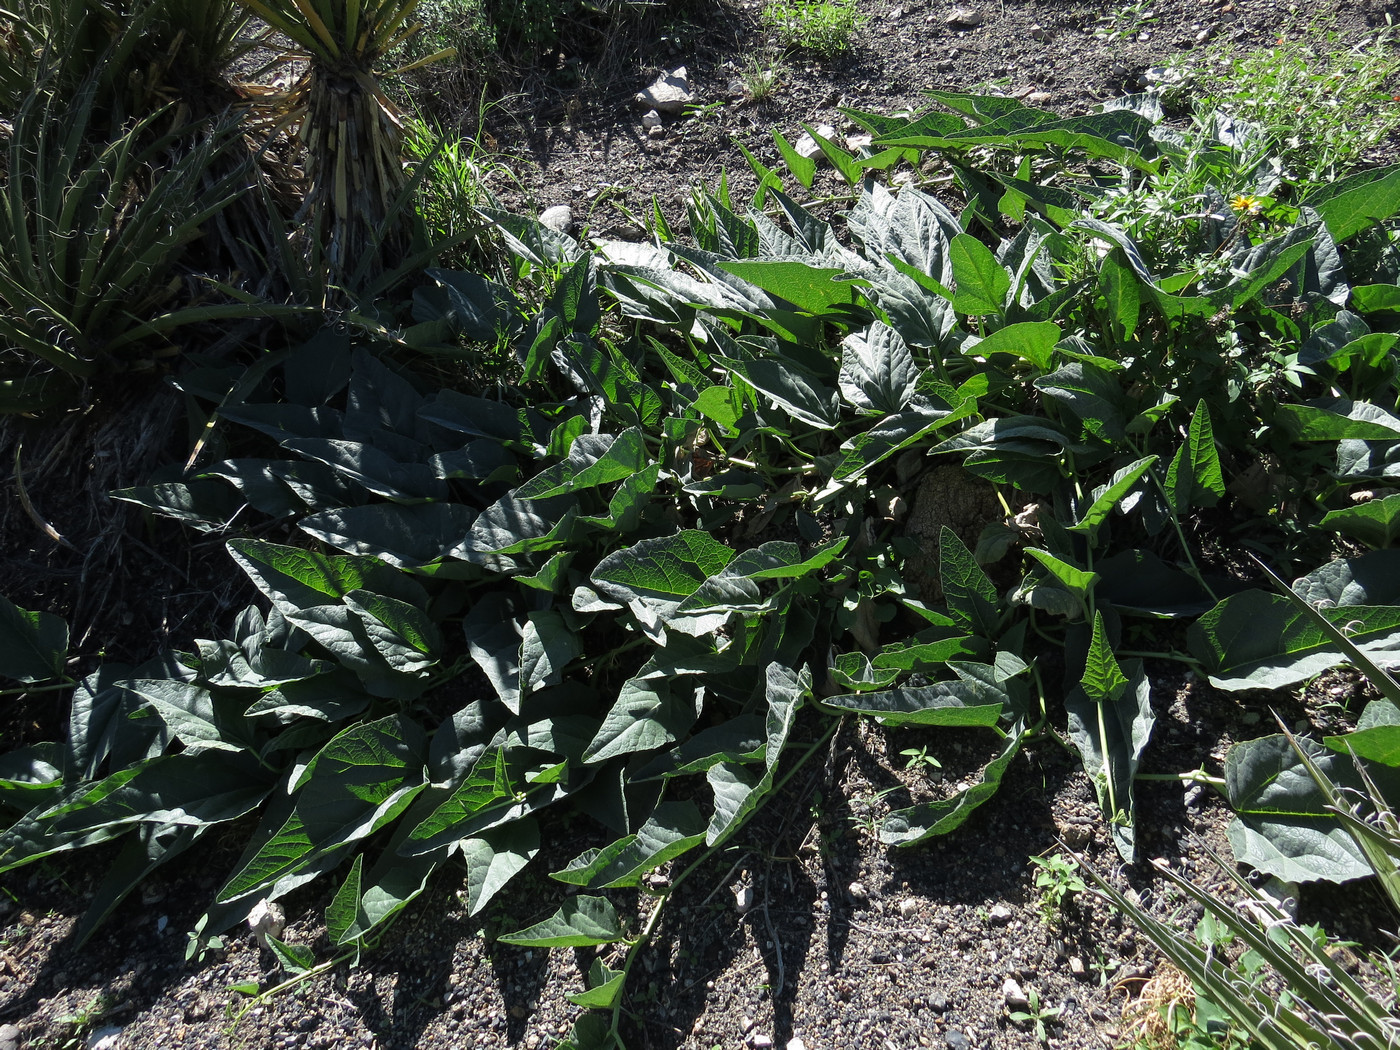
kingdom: Plantae
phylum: Tracheophyta
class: Magnoliopsida
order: Cucurbitales
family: Cucurbitaceae
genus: Cucurbita
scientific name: Cucurbita foetidissima
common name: Buffalo gourd
